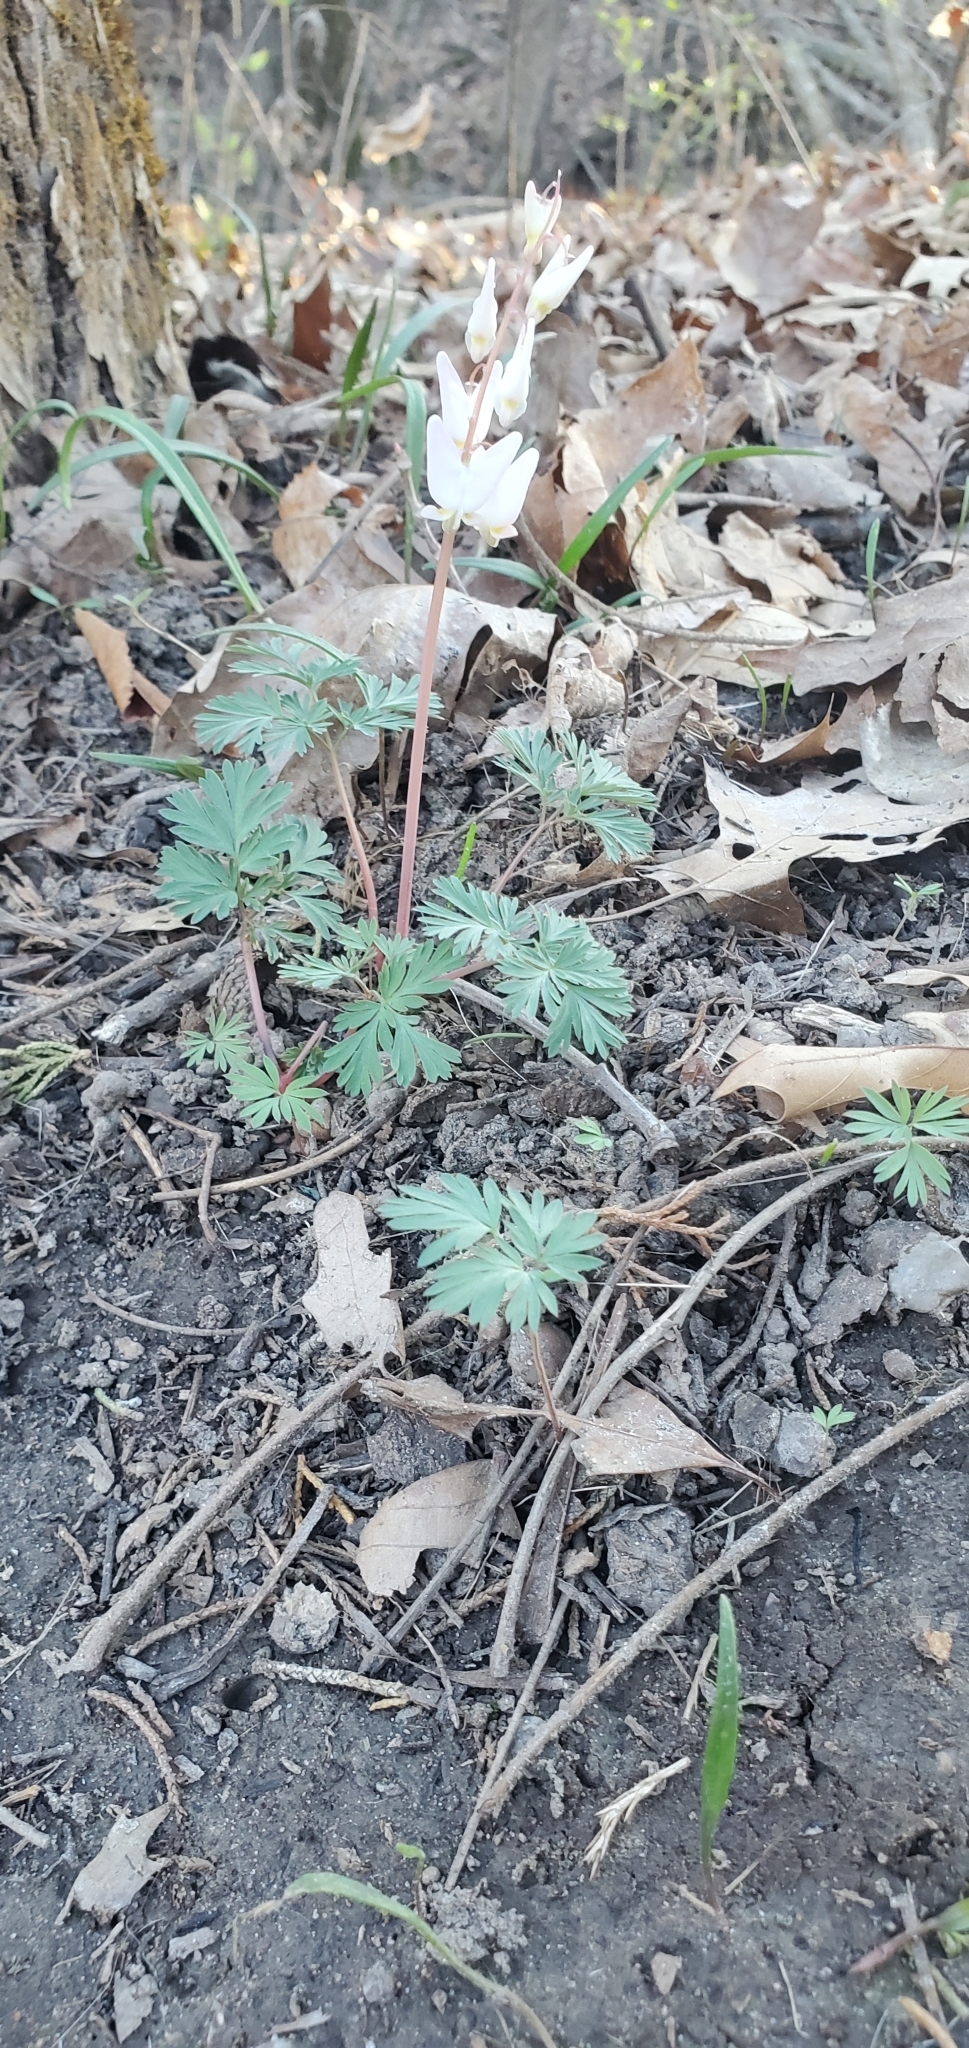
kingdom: Plantae
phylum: Tracheophyta
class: Magnoliopsida
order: Ranunculales
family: Papaveraceae
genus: Dicentra
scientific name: Dicentra cucullaria
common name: Dutchman's breeches
